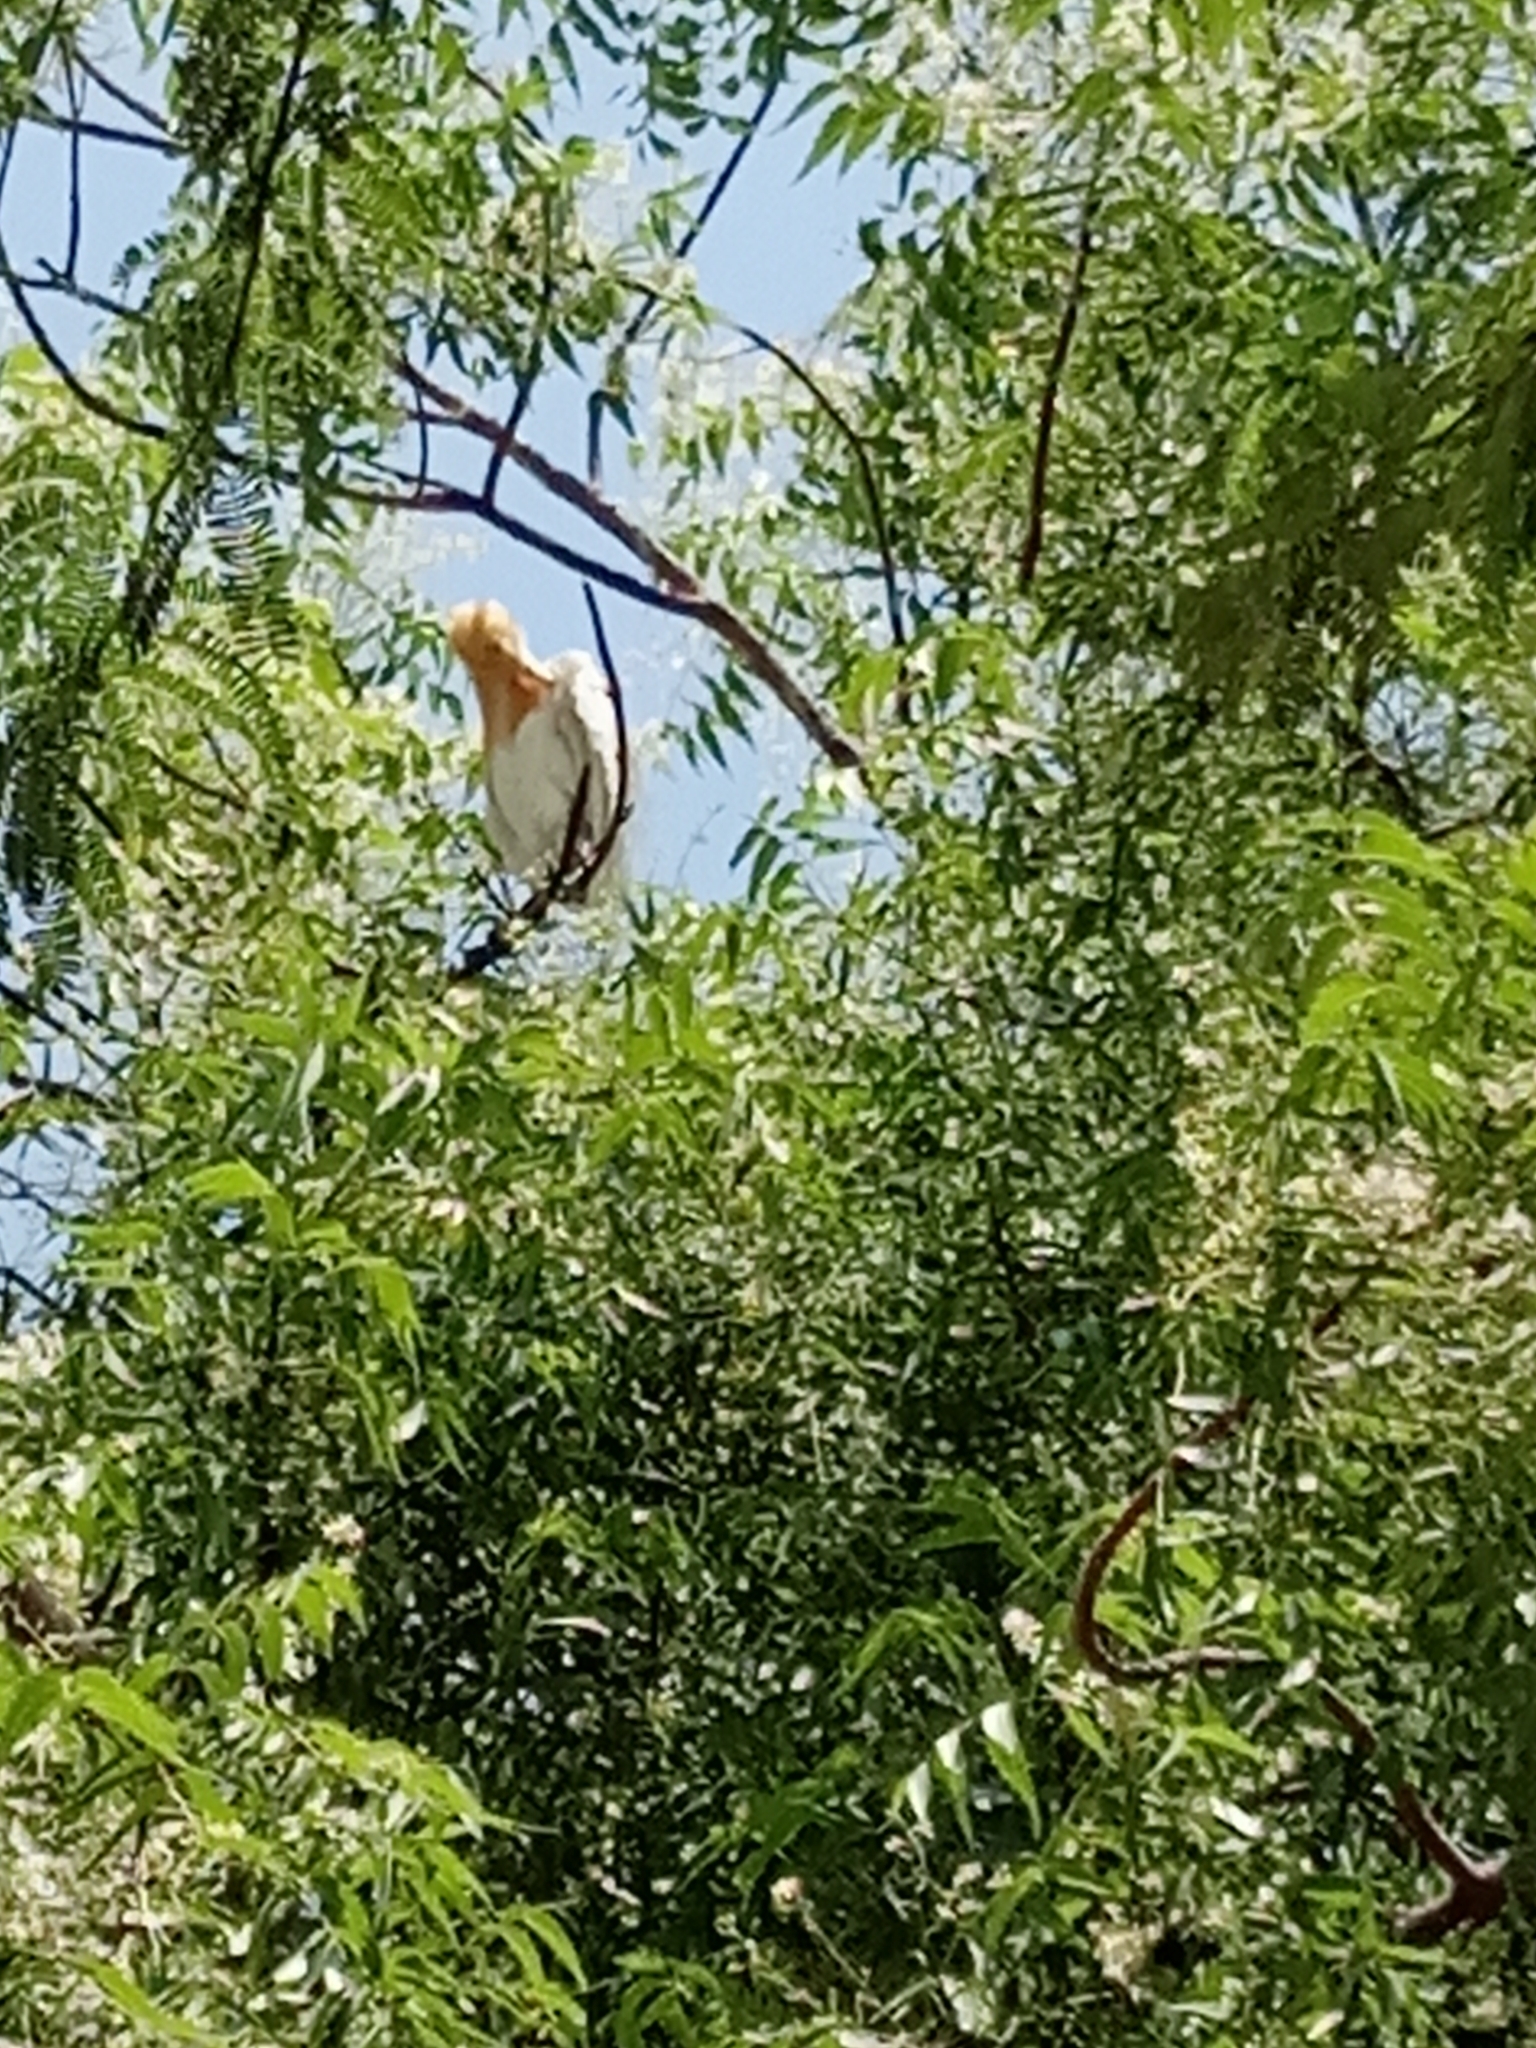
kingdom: Animalia
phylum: Chordata
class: Aves
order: Pelecaniformes
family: Ardeidae
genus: Bubulcus
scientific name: Bubulcus coromandus
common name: Eastern cattle egret
